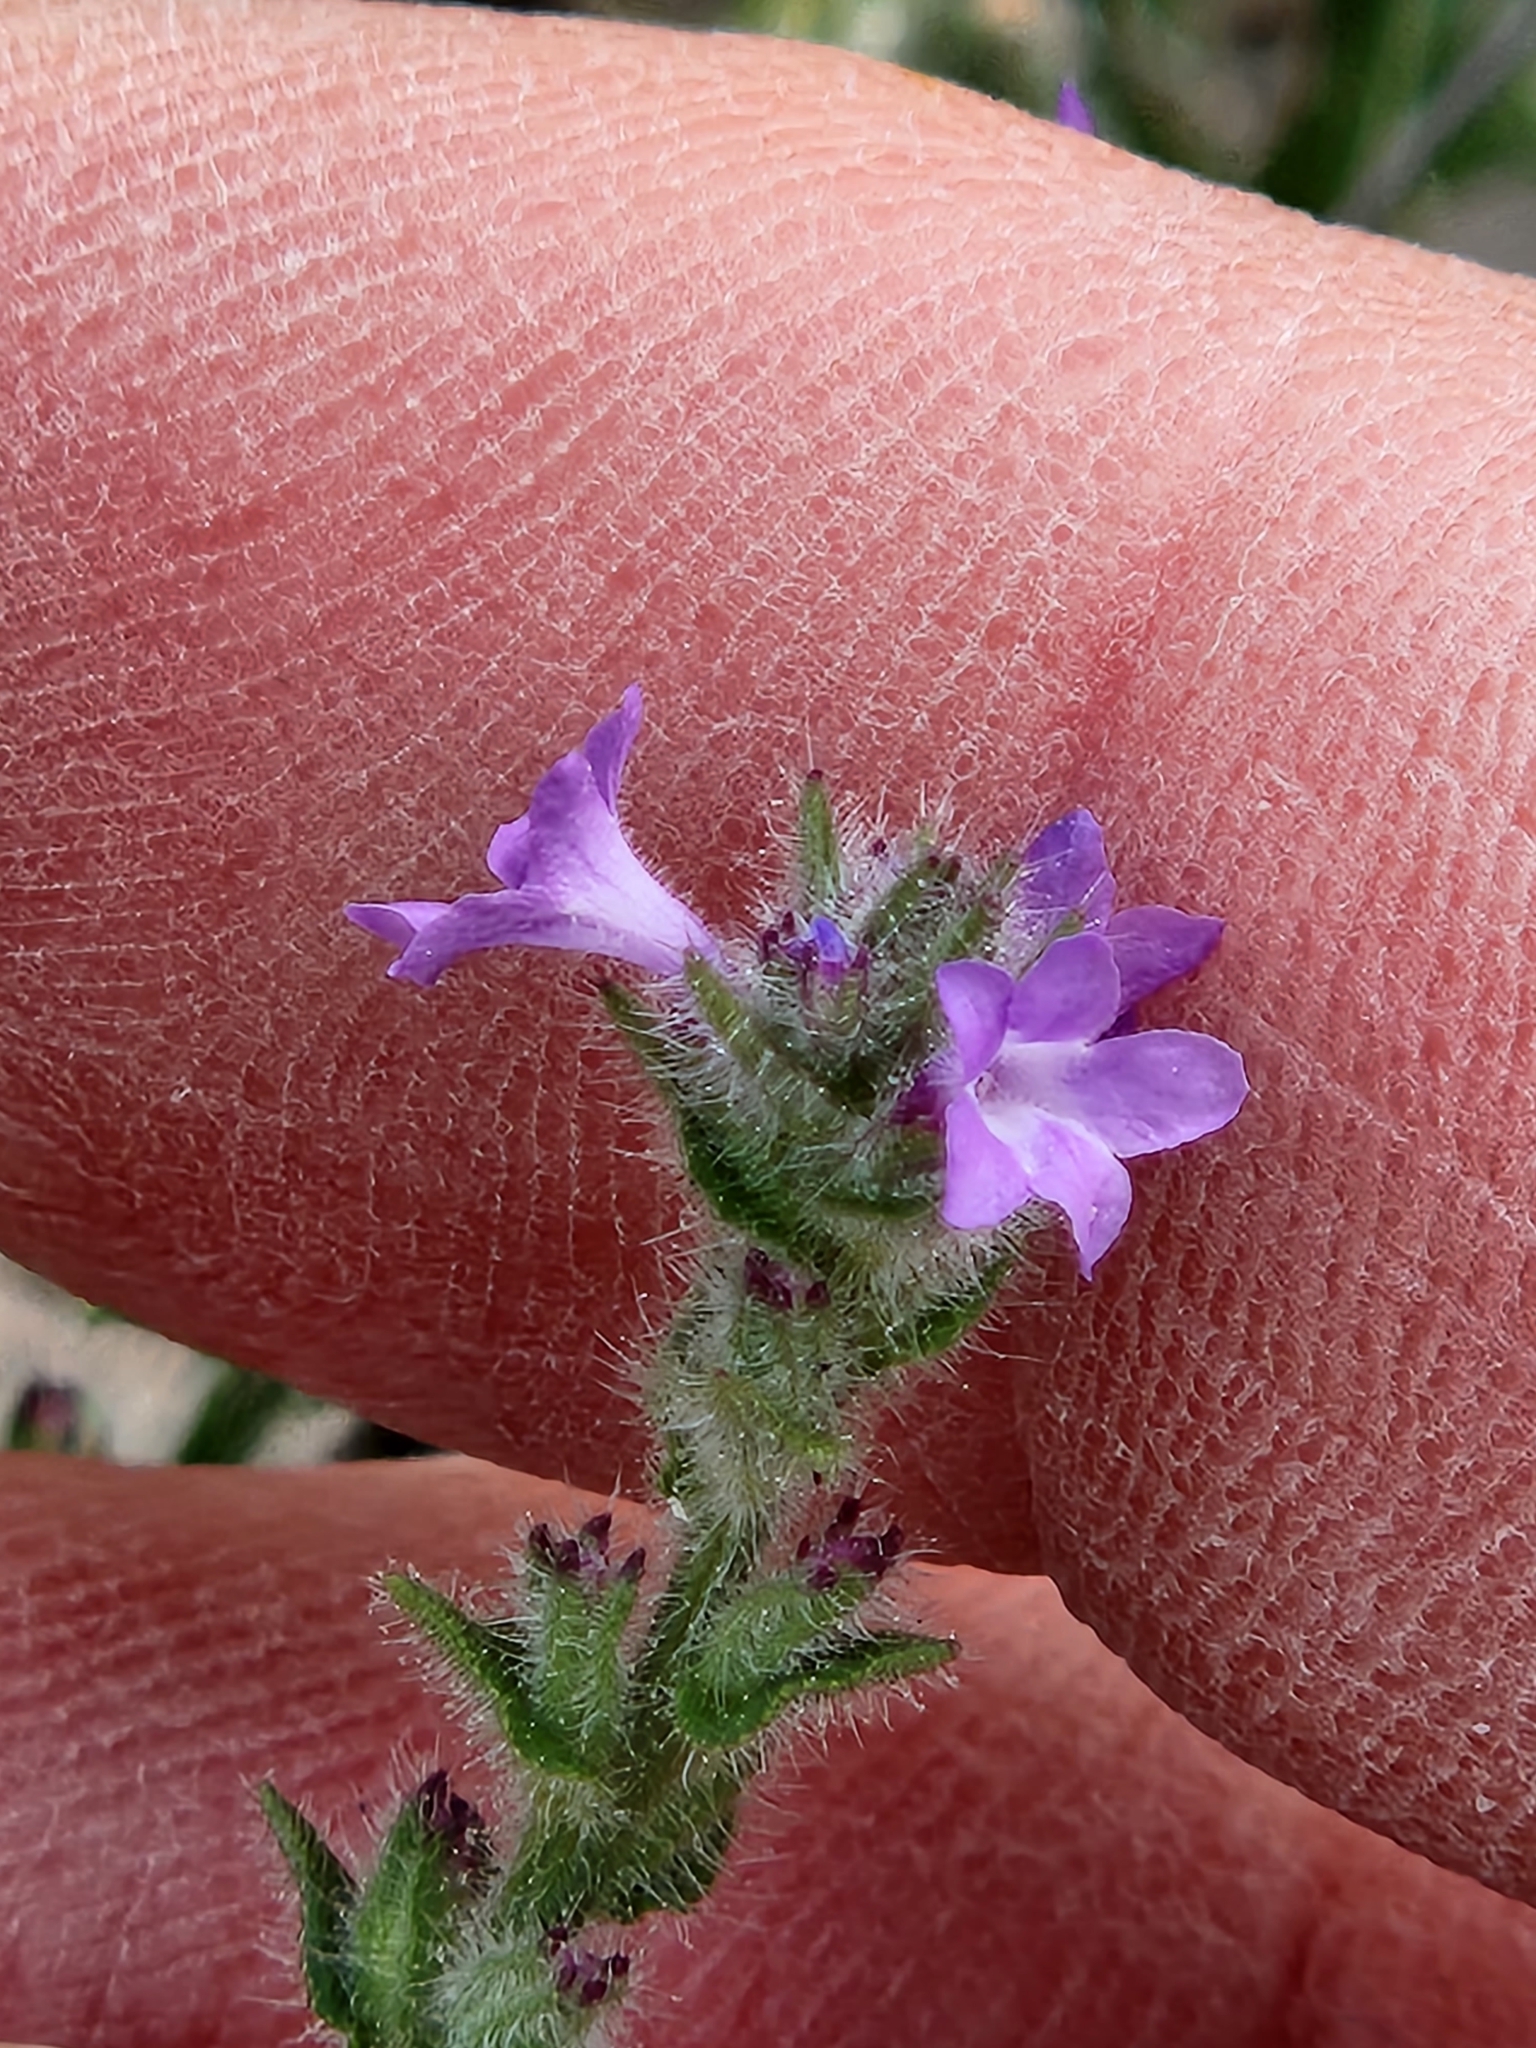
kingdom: Plantae
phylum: Tracheophyta
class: Magnoliopsida
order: Lamiales
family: Verbenaceae
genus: Verbena
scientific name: Verbena canescens
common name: Gray vervain
